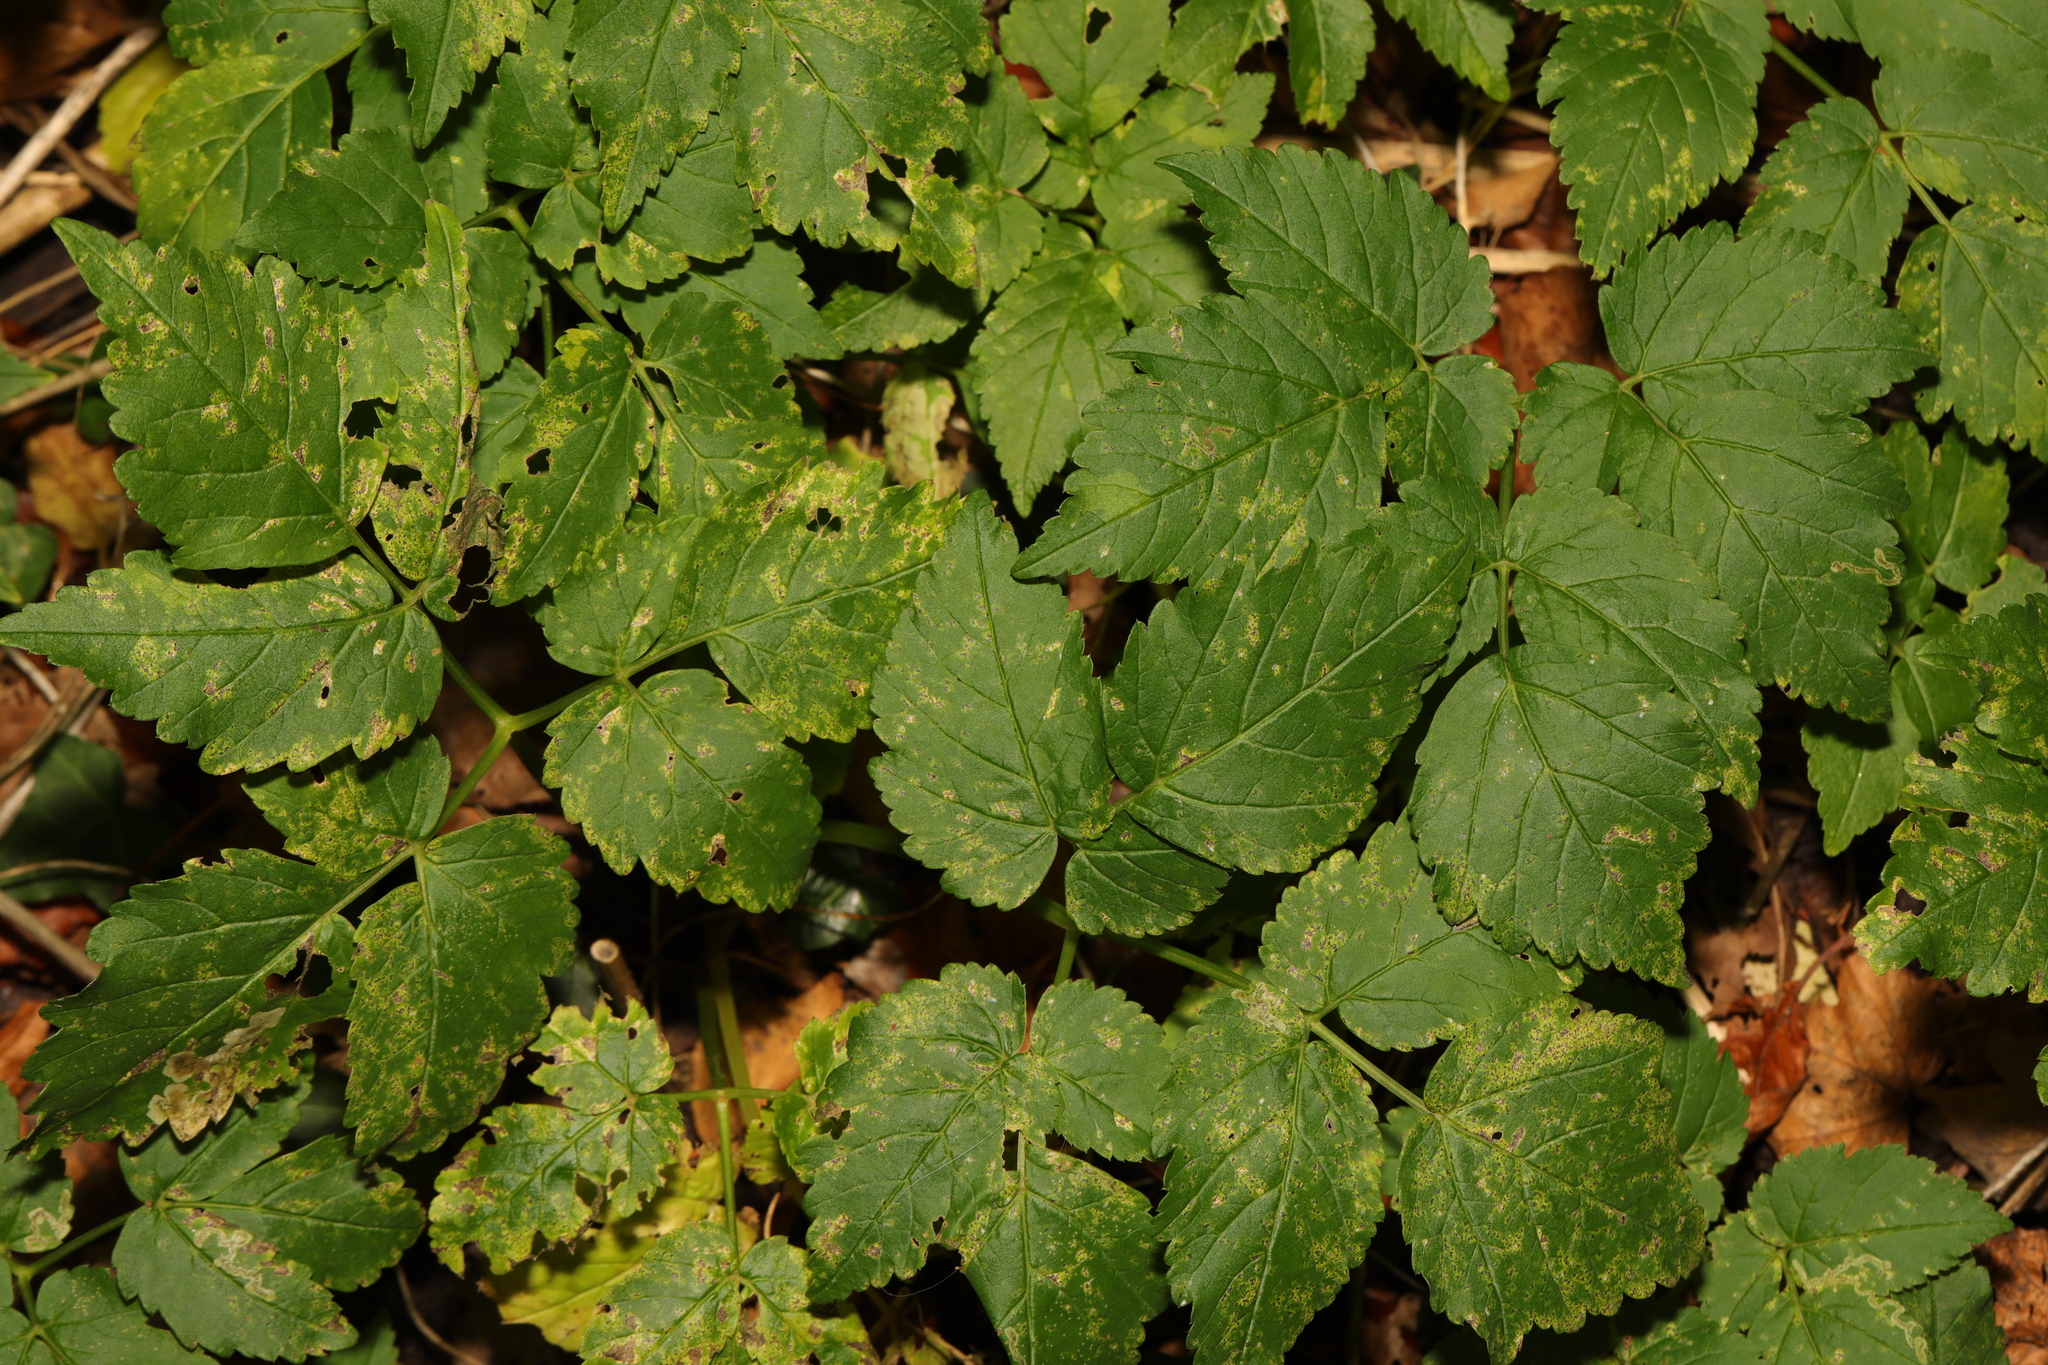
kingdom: Plantae
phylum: Tracheophyta
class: Magnoliopsida
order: Apiales
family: Apiaceae
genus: Aegopodium
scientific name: Aegopodium podagraria
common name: Ground-elder
